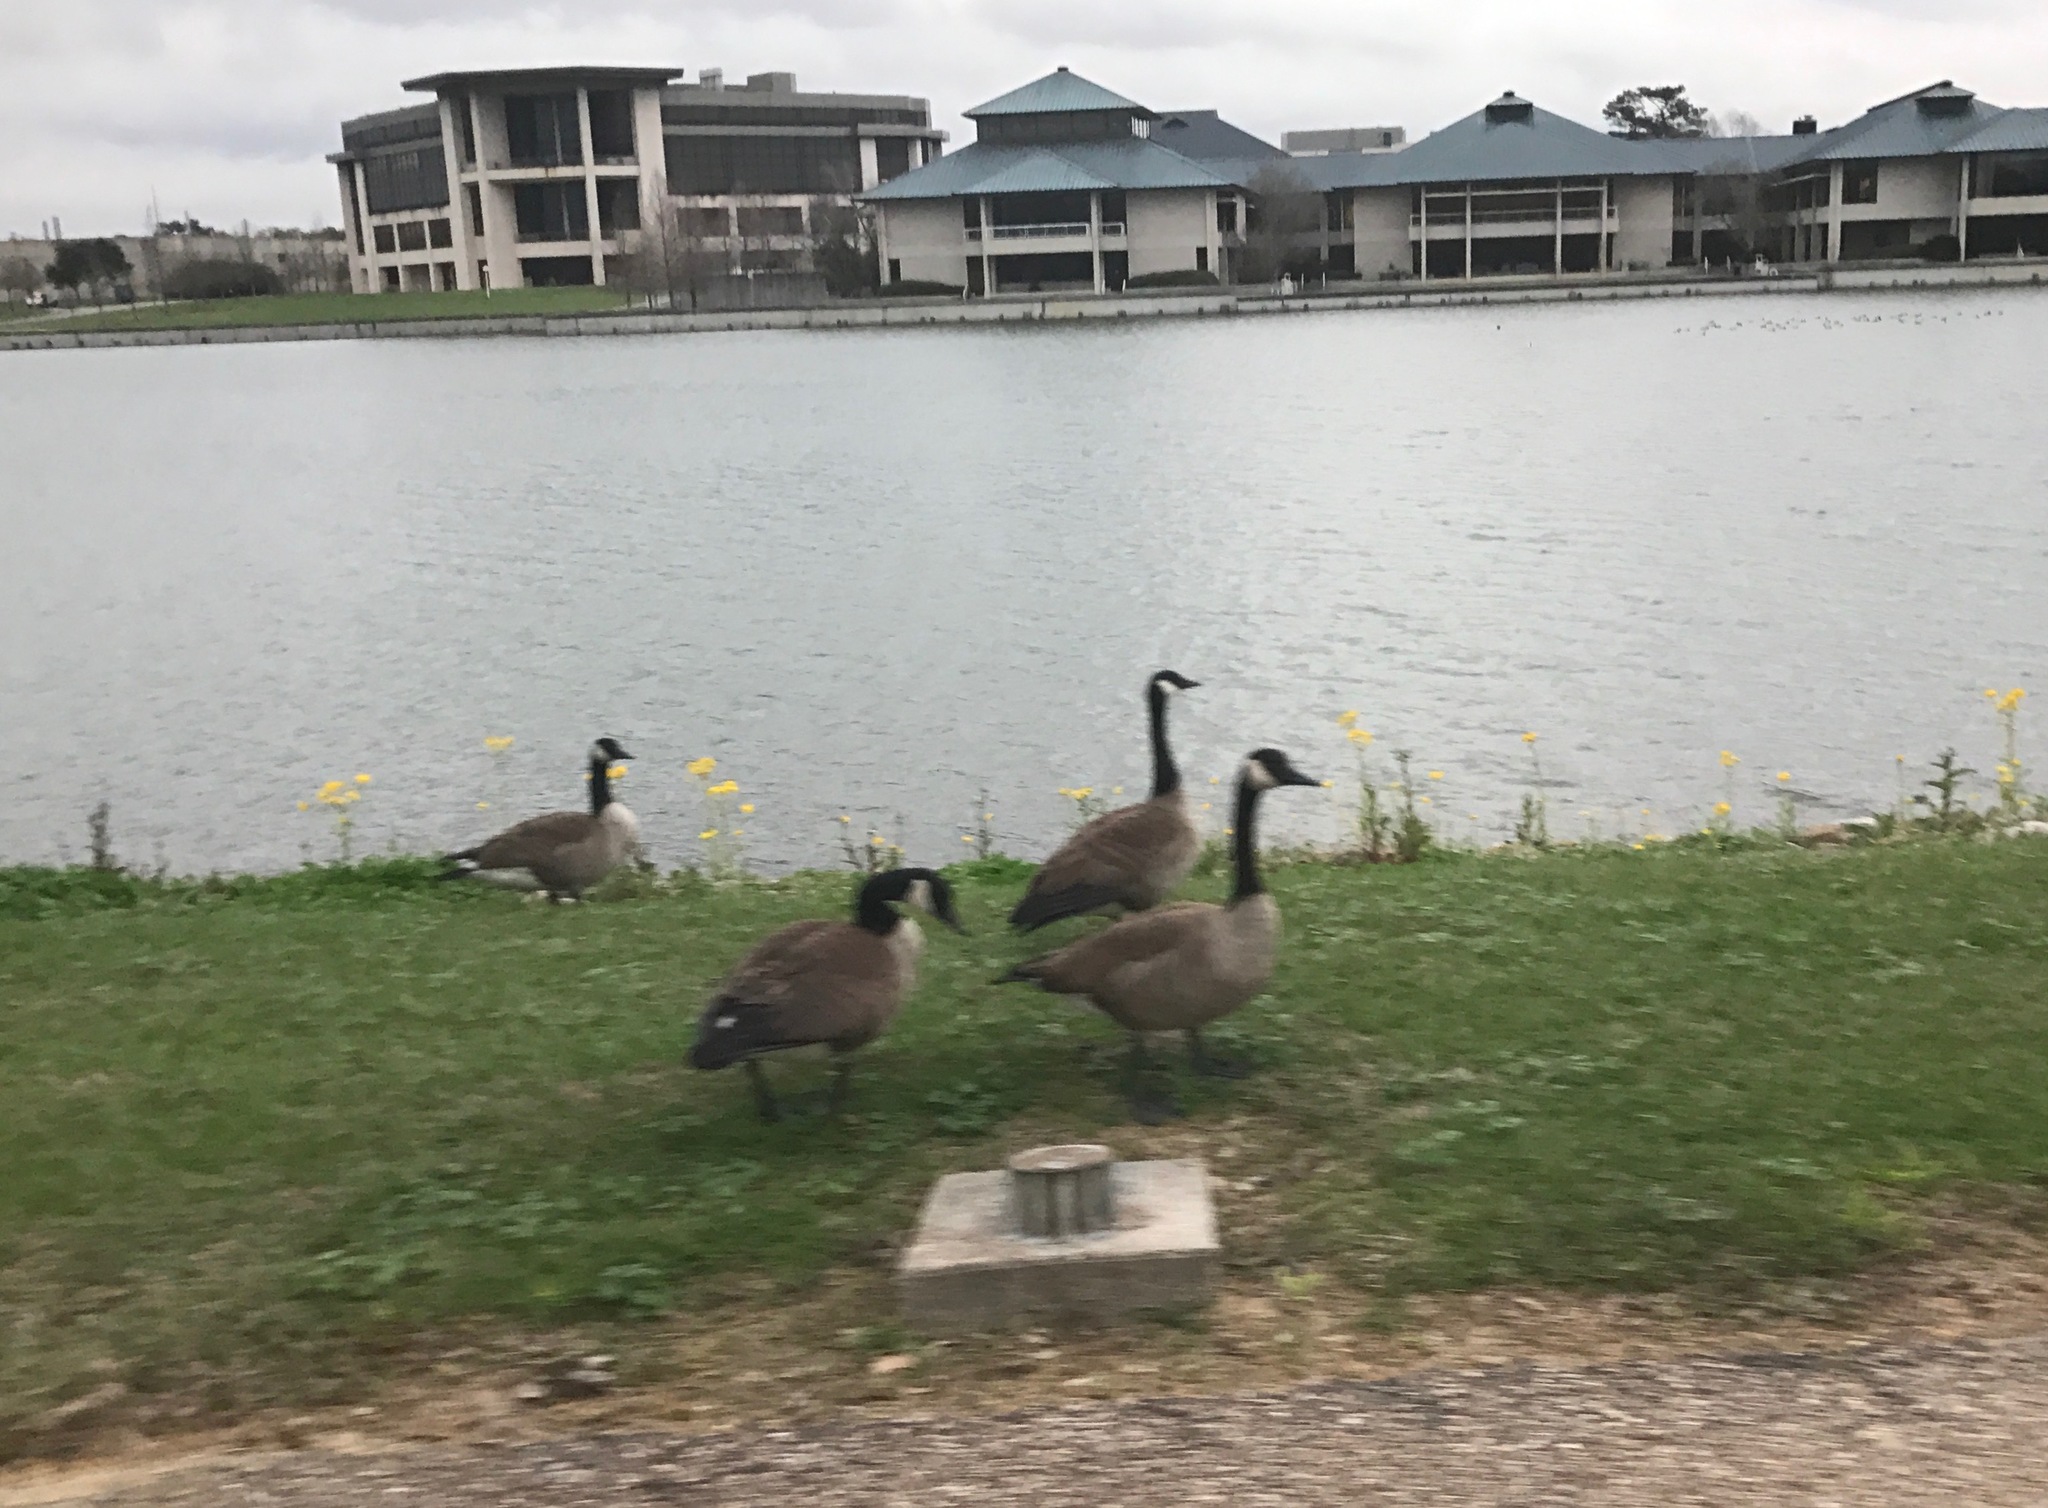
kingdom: Animalia
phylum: Chordata
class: Aves
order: Anseriformes
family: Anatidae
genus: Branta
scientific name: Branta canadensis
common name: Canada goose
